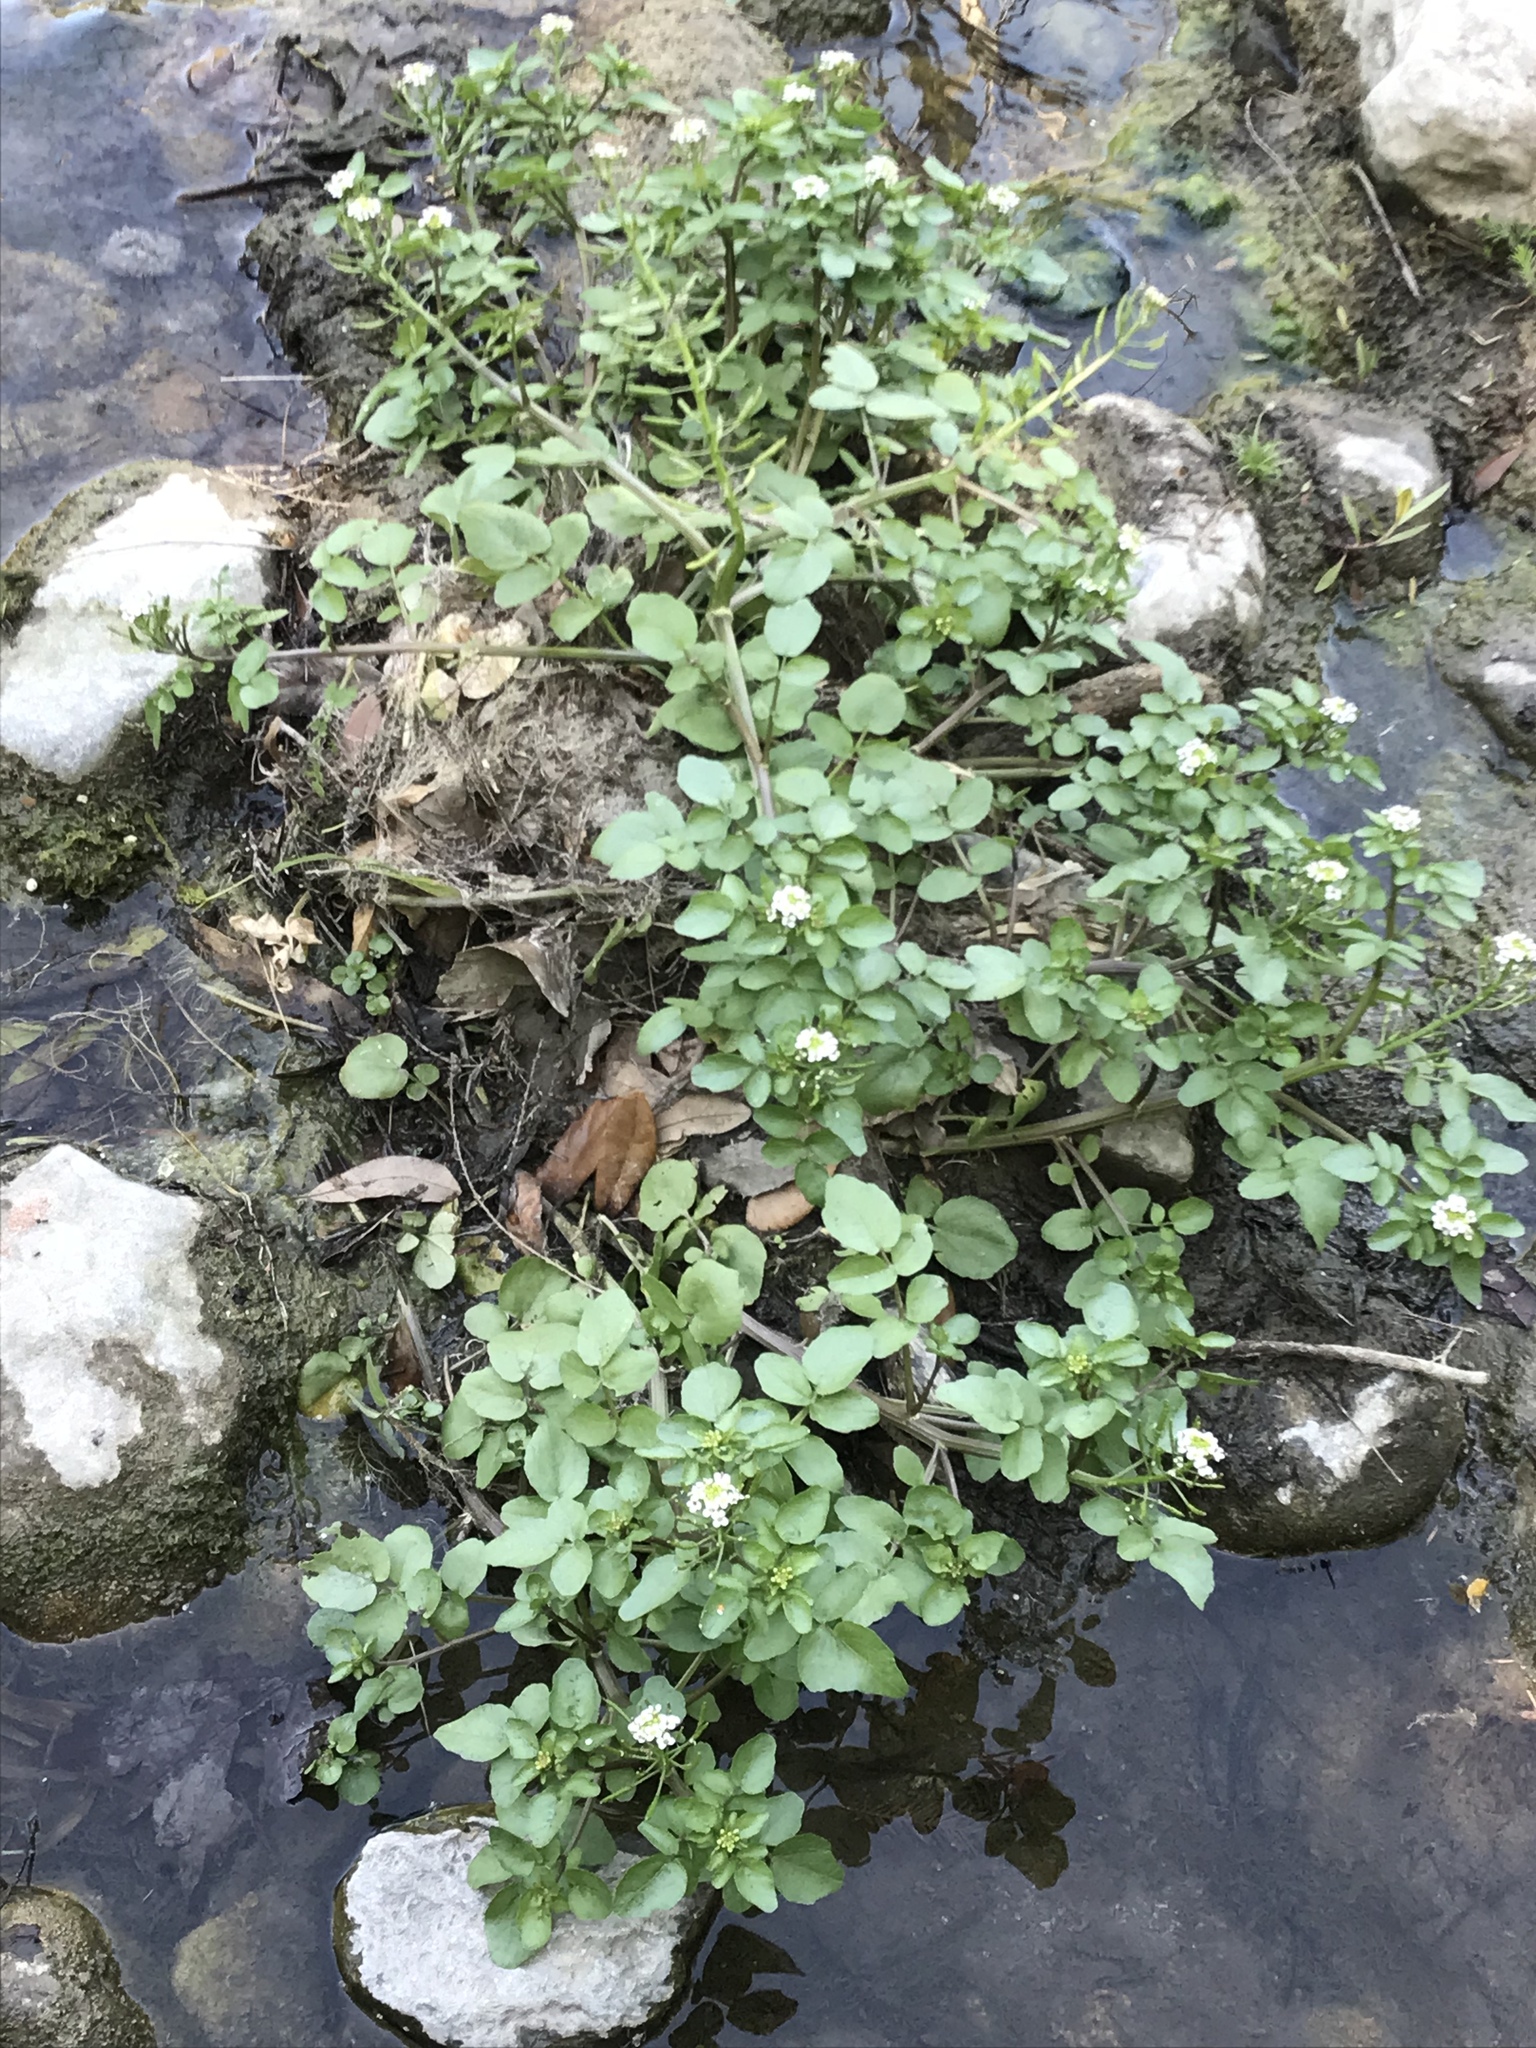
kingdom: Plantae
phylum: Tracheophyta
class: Magnoliopsida
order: Brassicales
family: Brassicaceae
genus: Nasturtium
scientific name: Nasturtium officinale
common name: Watercress
